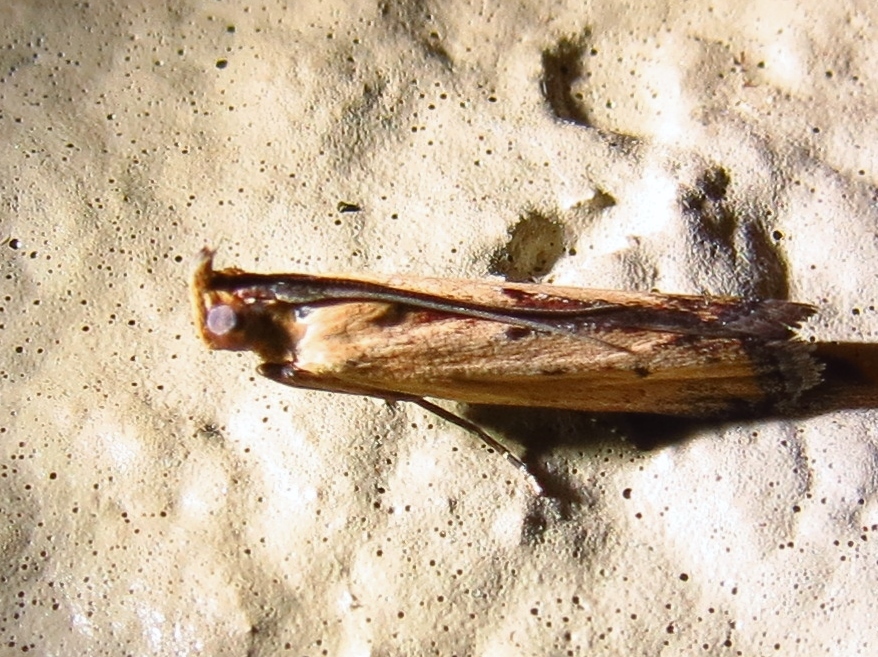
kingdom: Animalia
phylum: Arthropoda
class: Insecta
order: Lepidoptera
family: Pyralidae
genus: Elasmopalpus
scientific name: Elasmopalpus lignosella
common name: Lesser cornstalk borer
